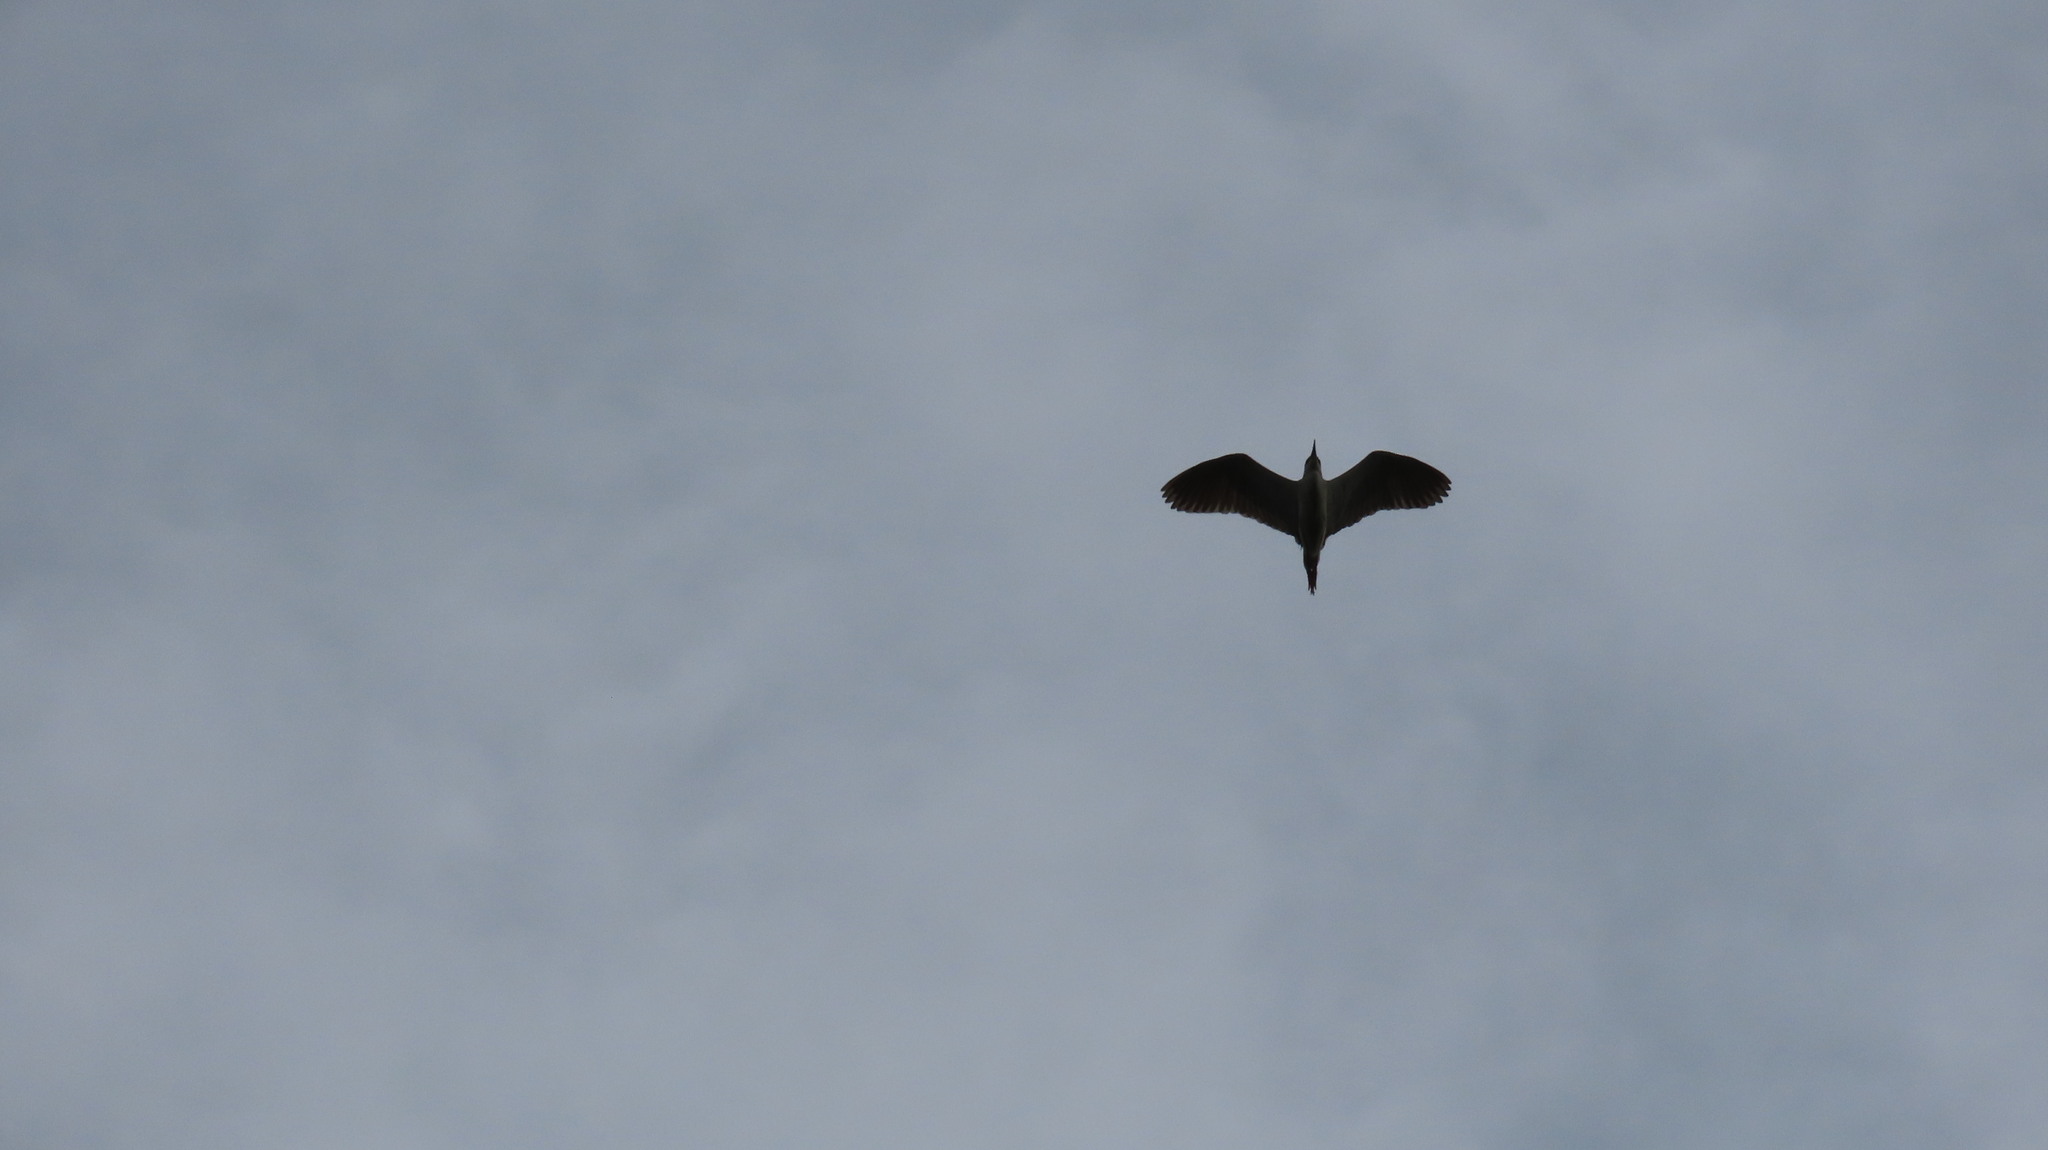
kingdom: Animalia
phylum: Chordata
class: Aves
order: Pelecaniformes
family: Ardeidae
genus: Nycticorax
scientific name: Nycticorax nycticorax
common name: Black-crowned night heron
